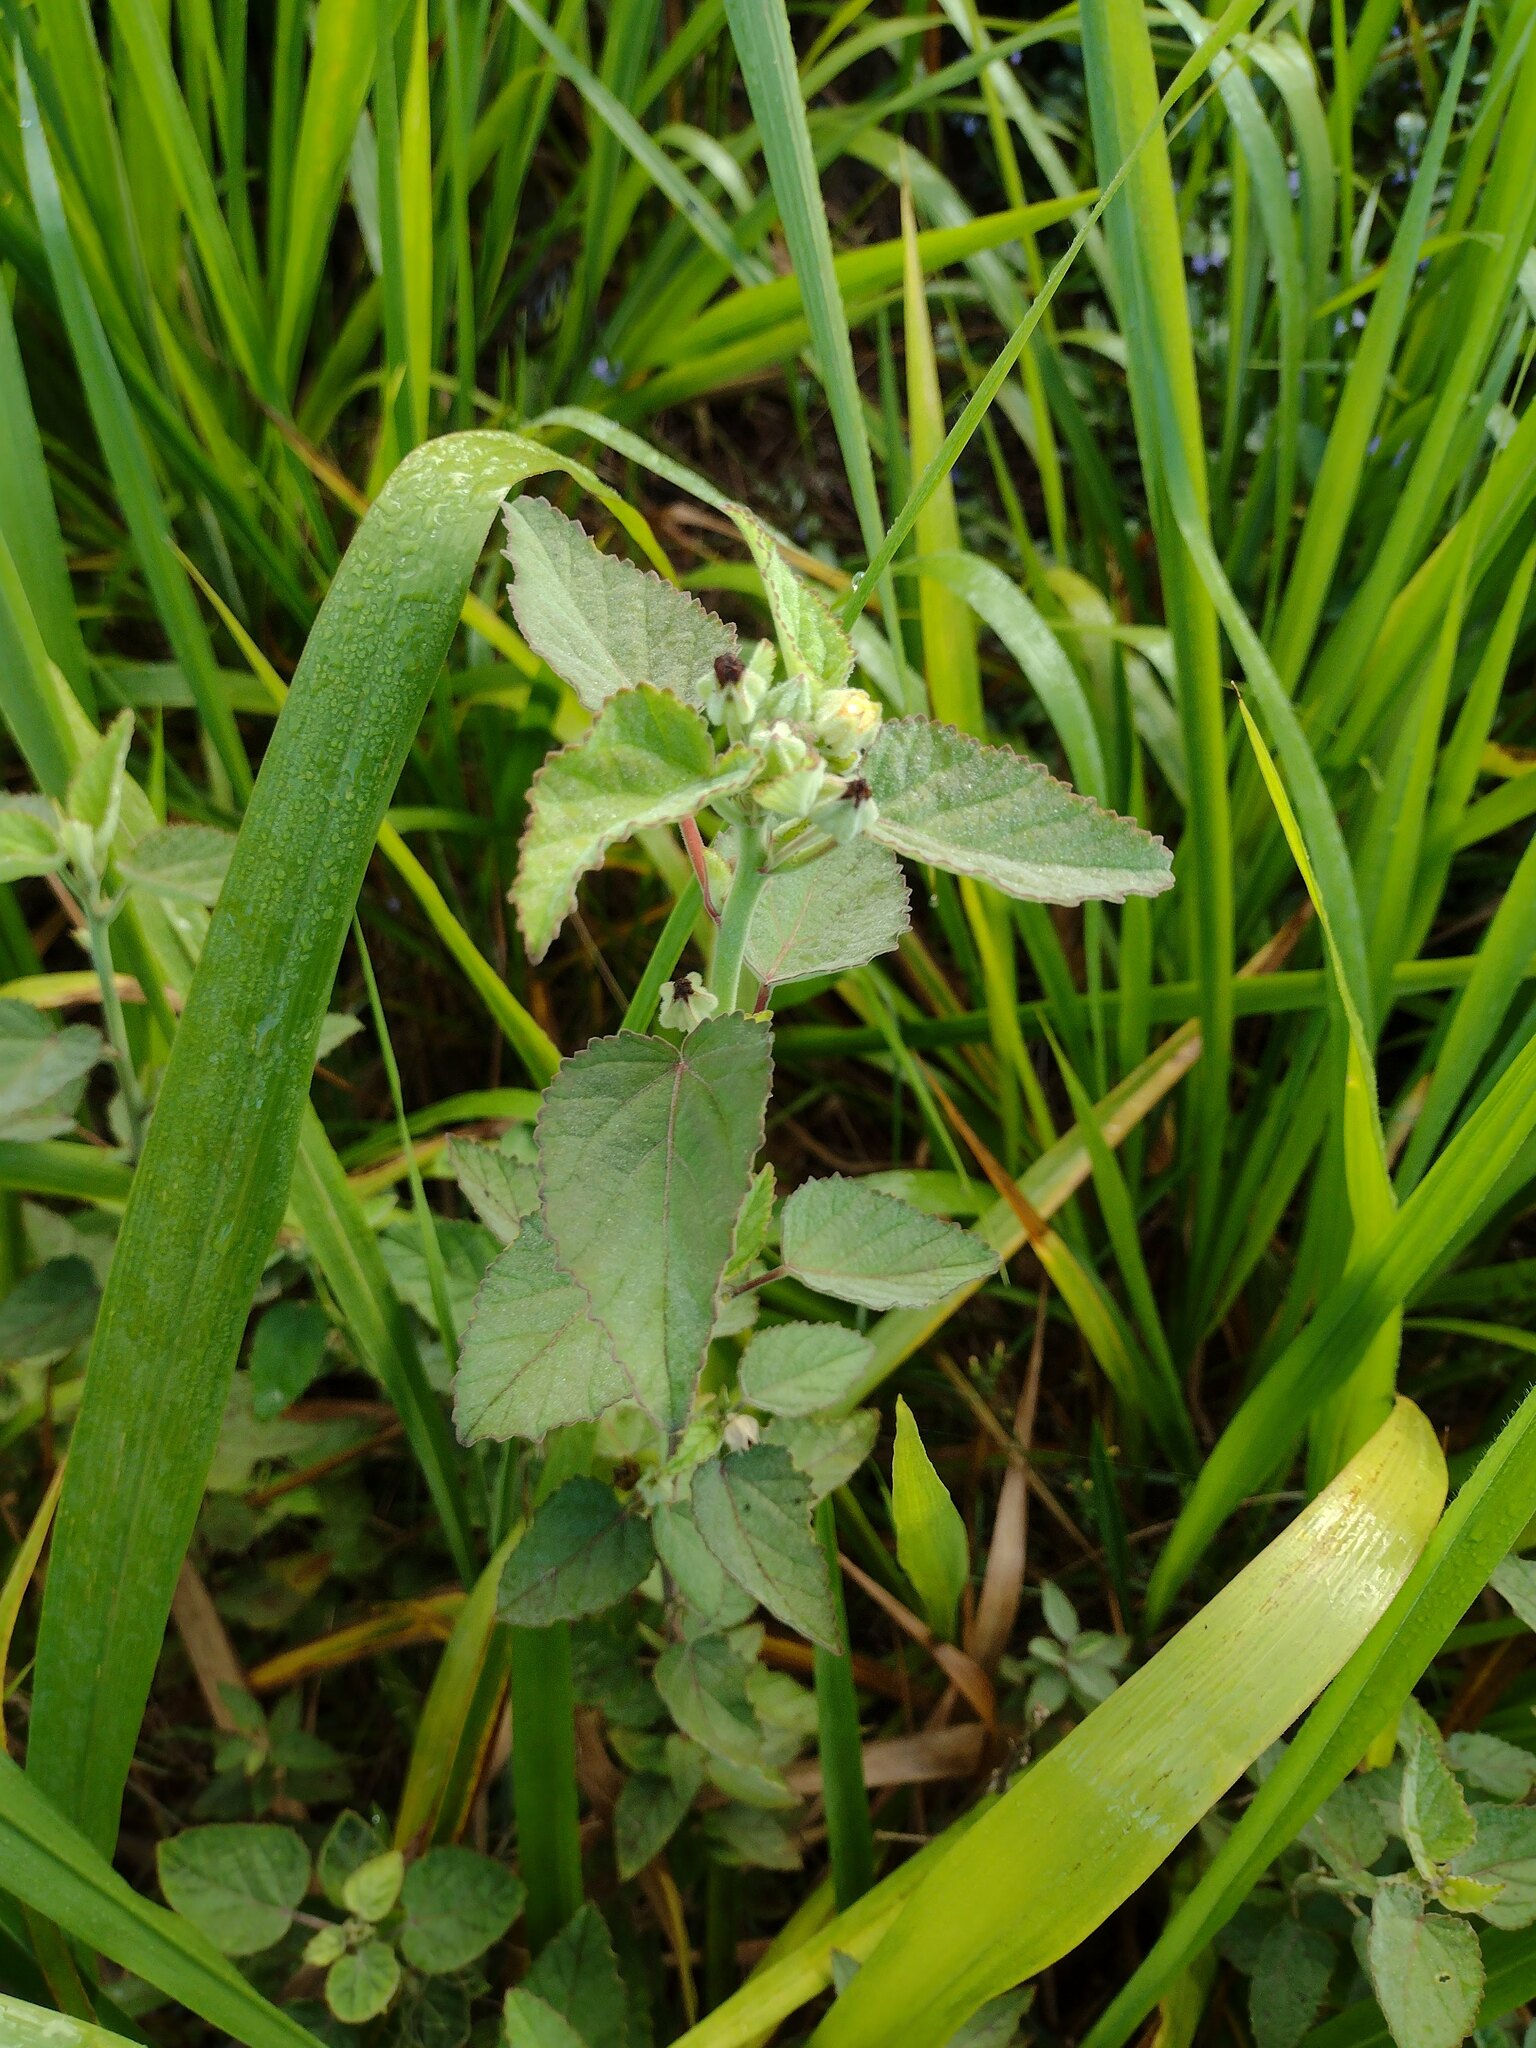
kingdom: Plantae
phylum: Tracheophyta
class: Magnoliopsida
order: Malvales
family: Malvaceae
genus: Sida
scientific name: Sida cordifolia
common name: Ilima
